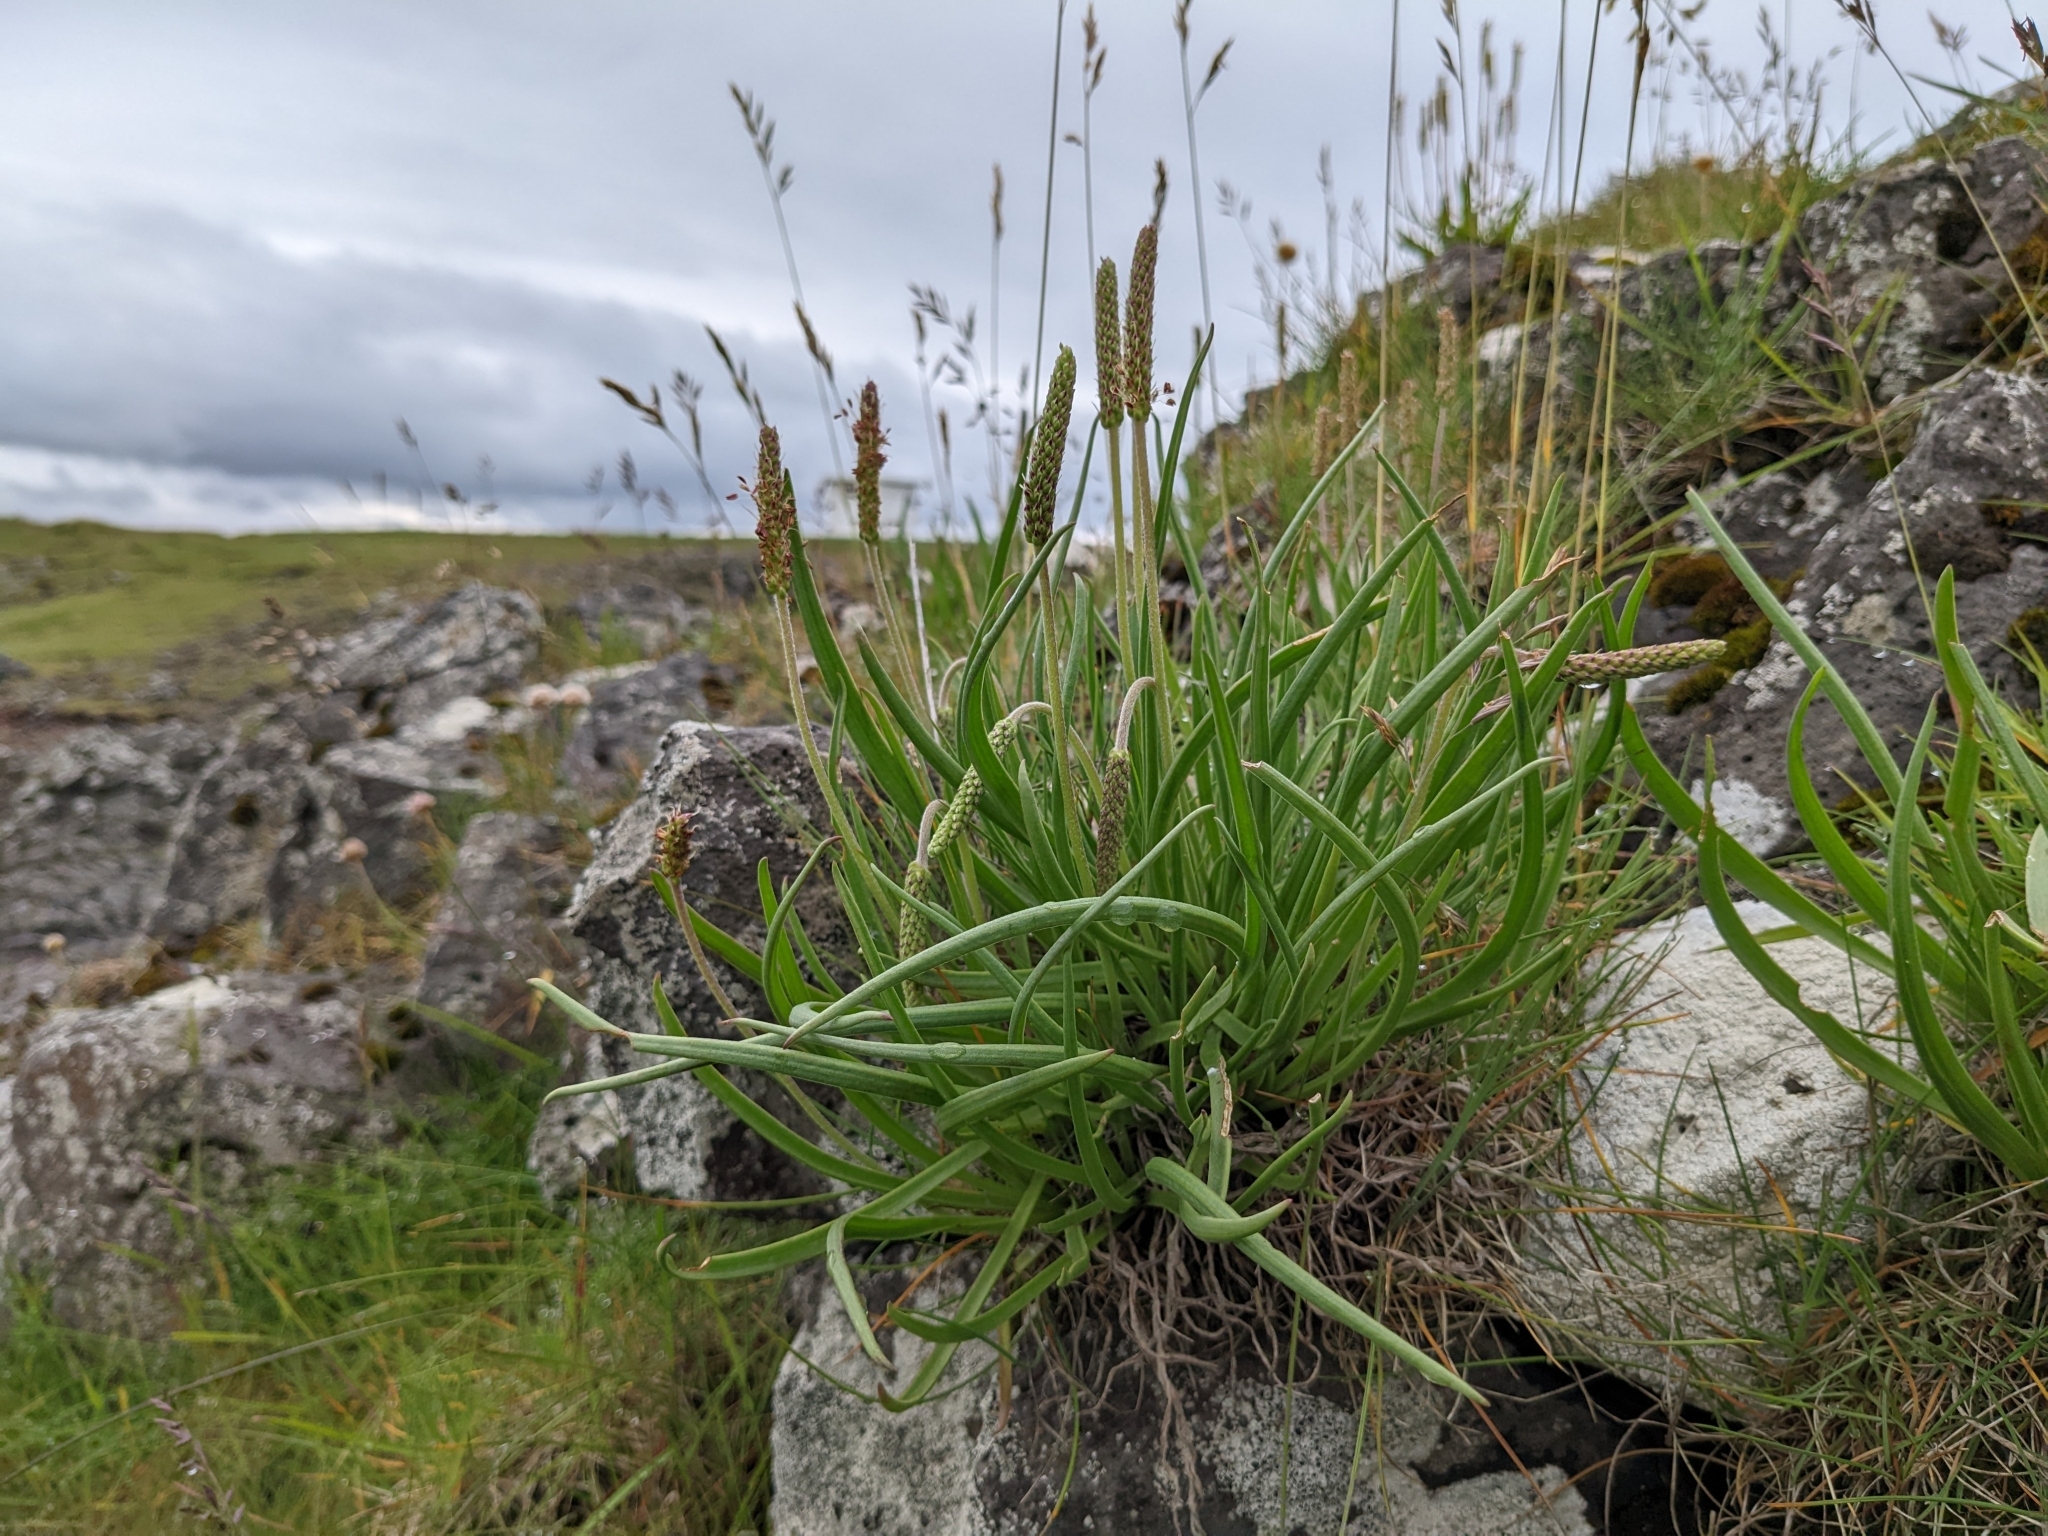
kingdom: Plantae
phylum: Tracheophyta
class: Magnoliopsida
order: Lamiales
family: Plantaginaceae
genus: Plantago
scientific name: Plantago maritima
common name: Sea plantain
